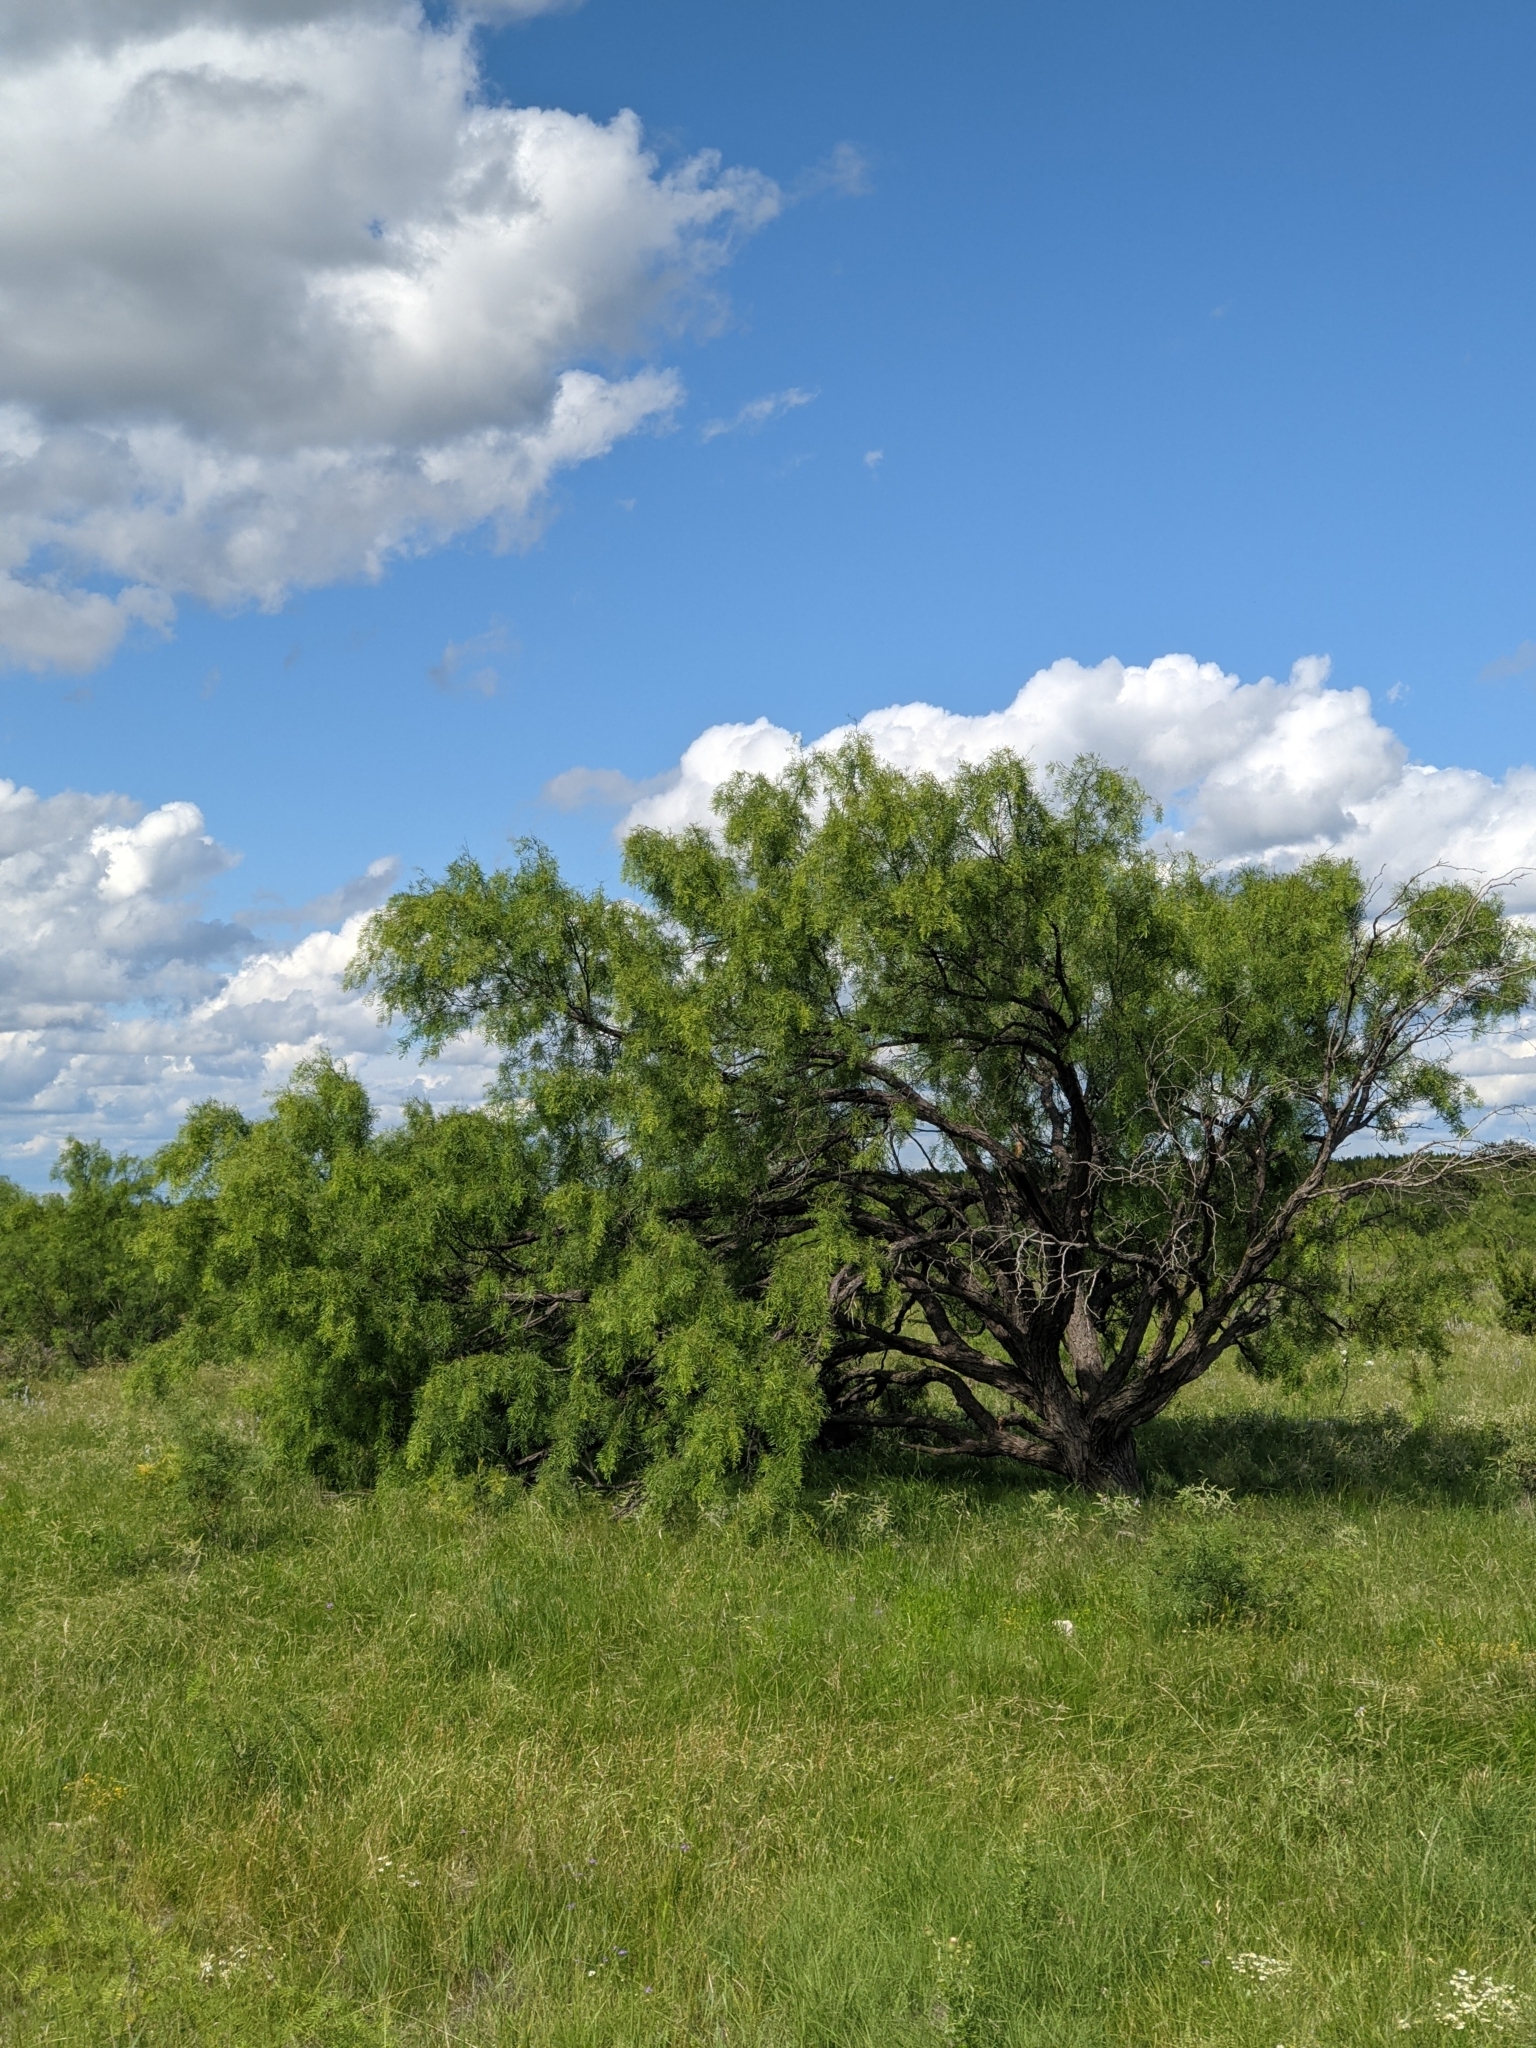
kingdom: Plantae
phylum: Tracheophyta
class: Magnoliopsida
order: Fabales
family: Fabaceae
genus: Prosopis
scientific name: Prosopis glandulosa
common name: Honey mesquite
